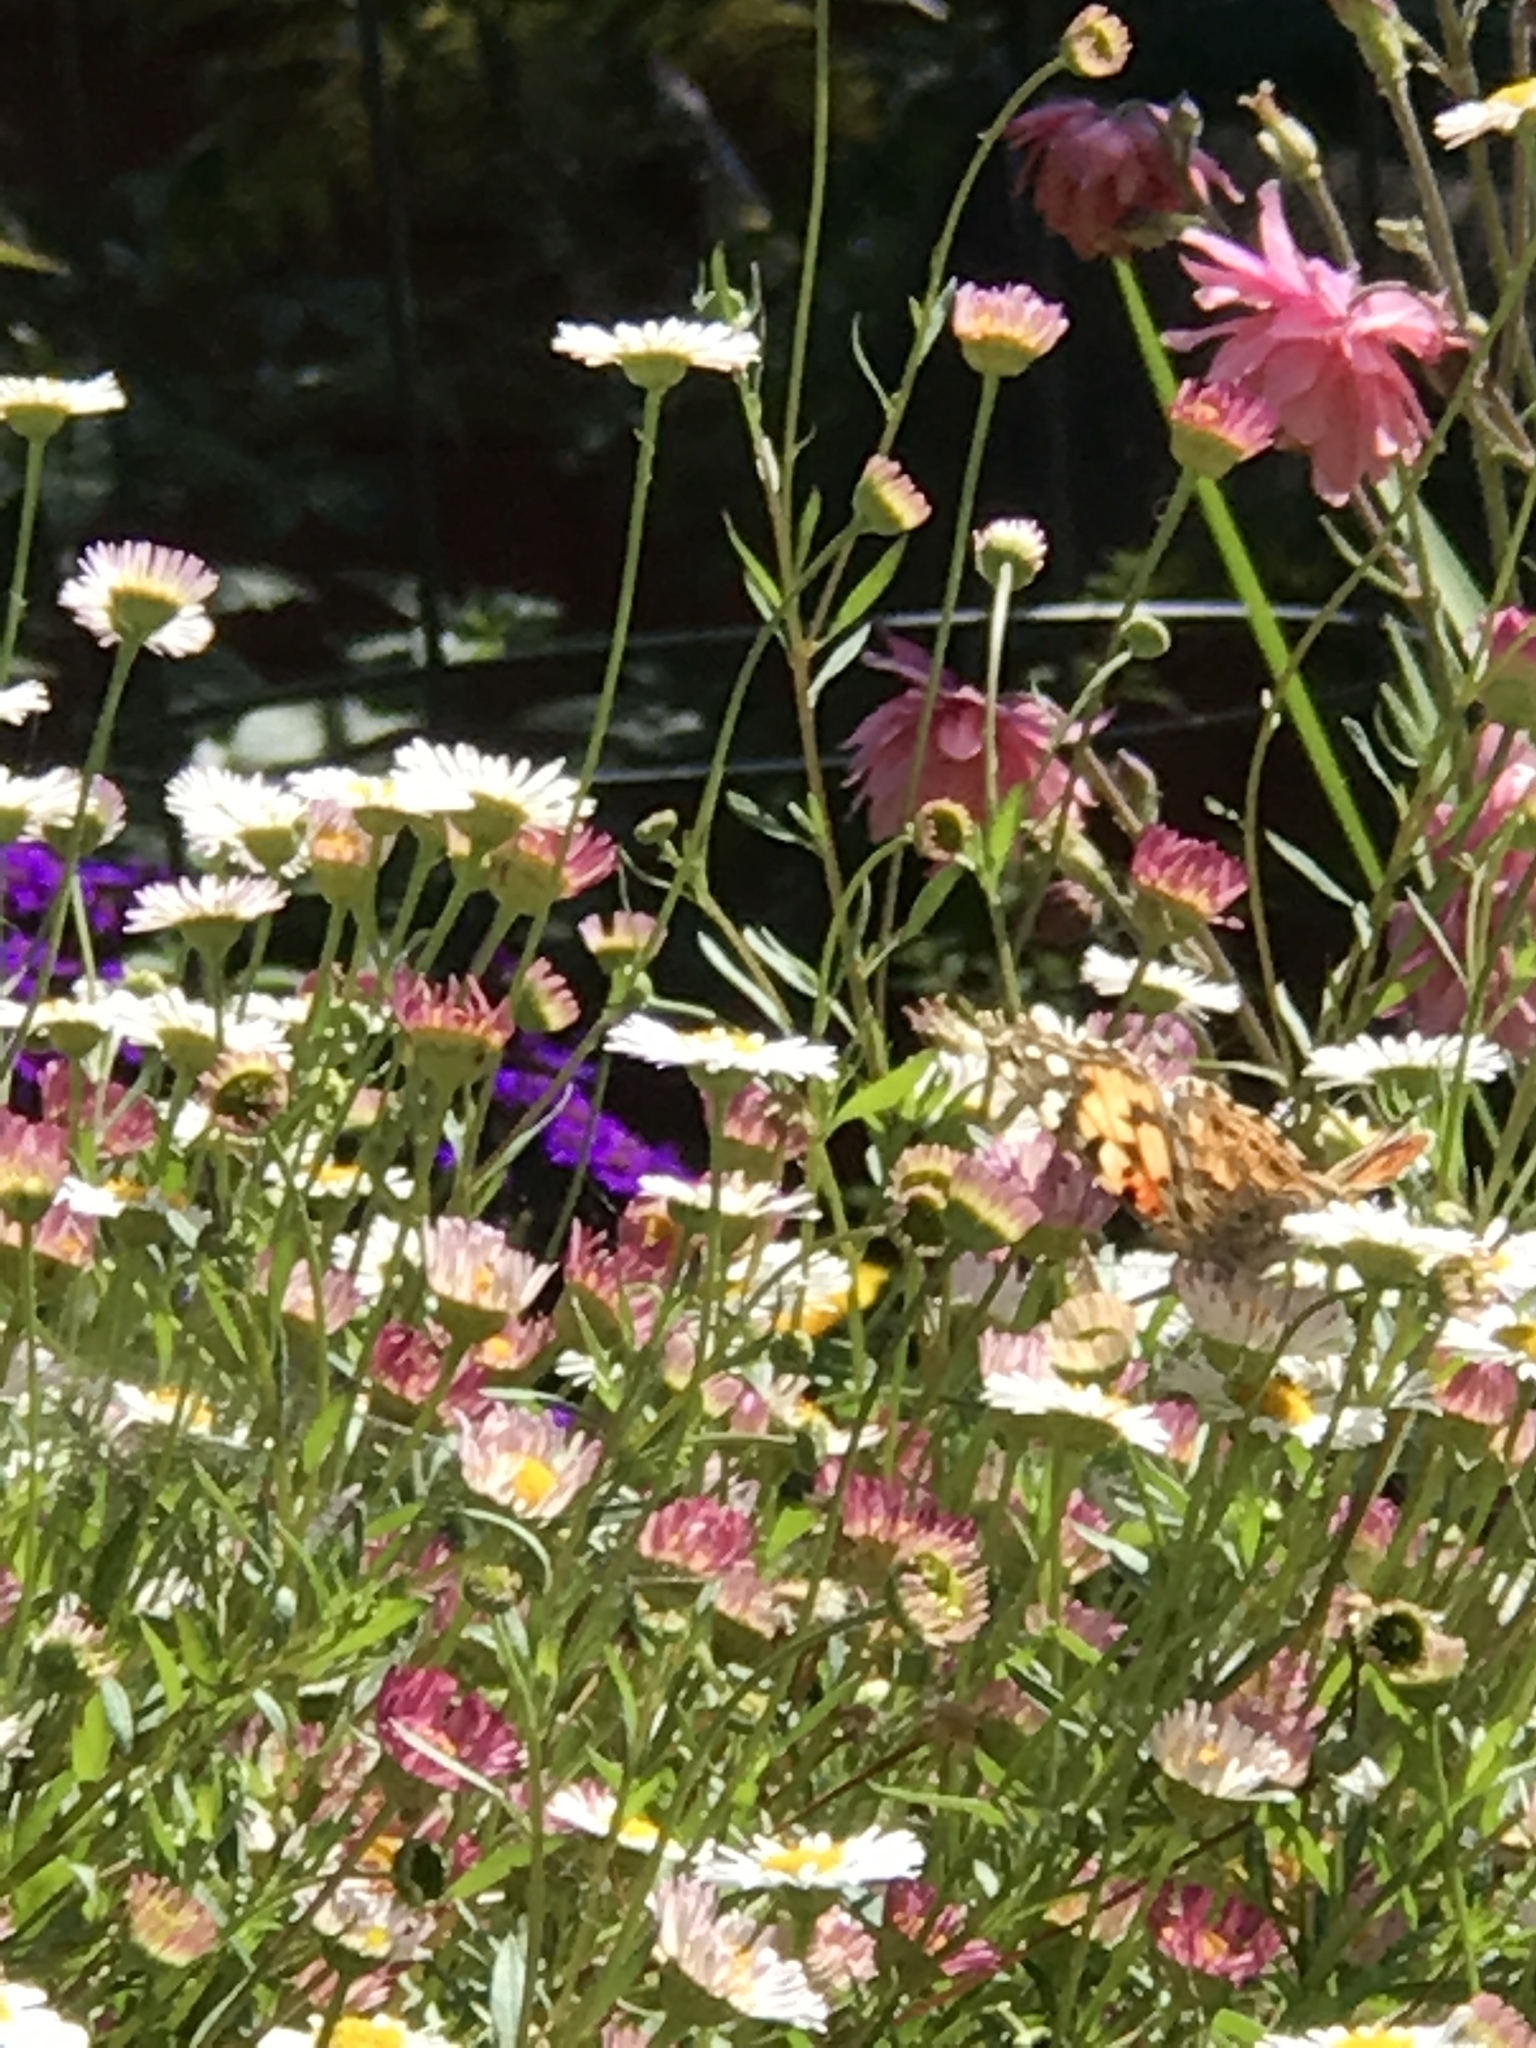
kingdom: Animalia
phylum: Arthropoda
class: Insecta
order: Lepidoptera
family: Nymphalidae
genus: Vanessa
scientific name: Vanessa cardui
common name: Painted lady
